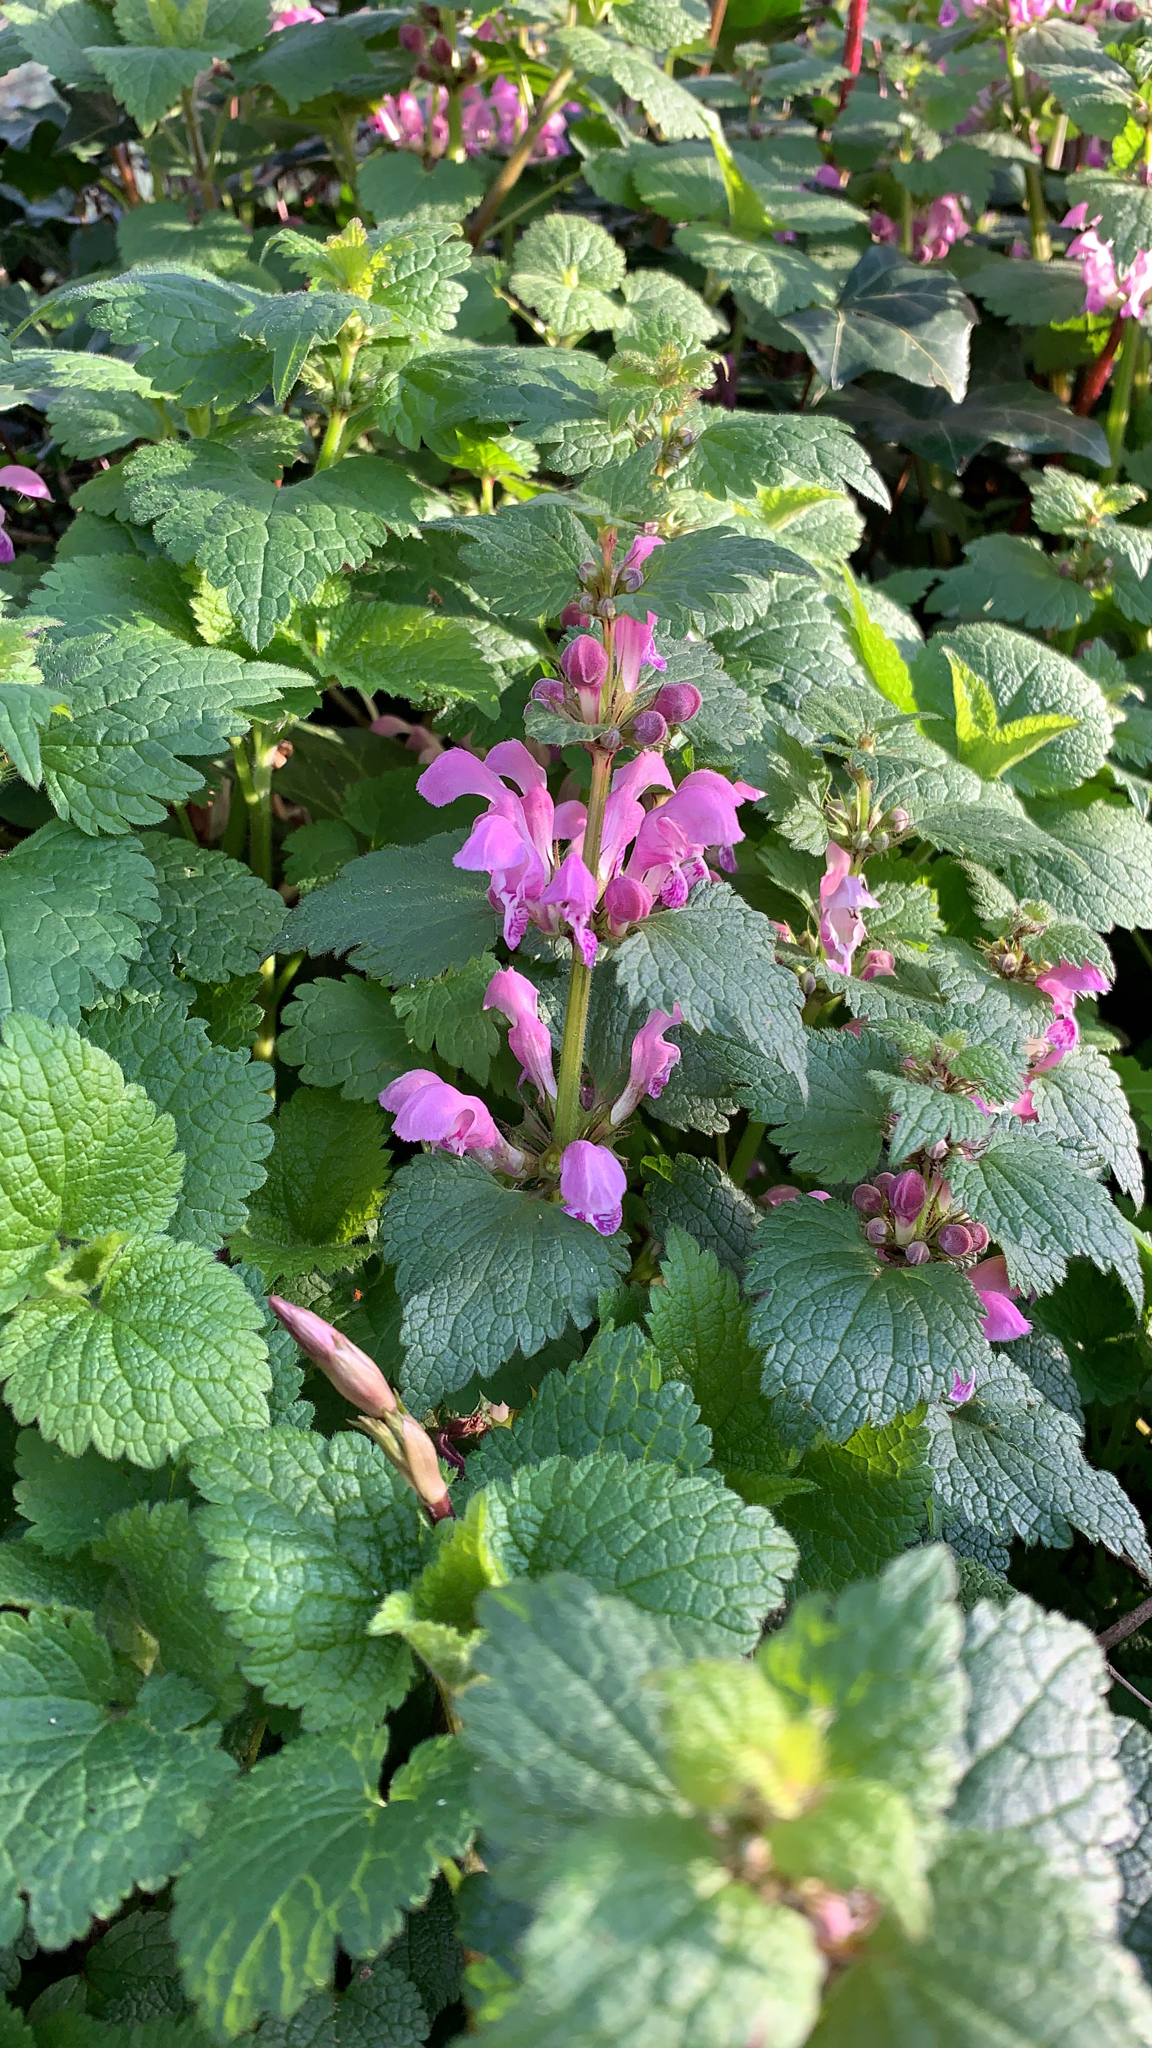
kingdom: Plantae
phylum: Tracheophyta
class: Magnoliopsida
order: Lamiales
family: Lamiaceae
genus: Lamium
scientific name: Lamium maculatum
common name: Spotted dead-nettle
